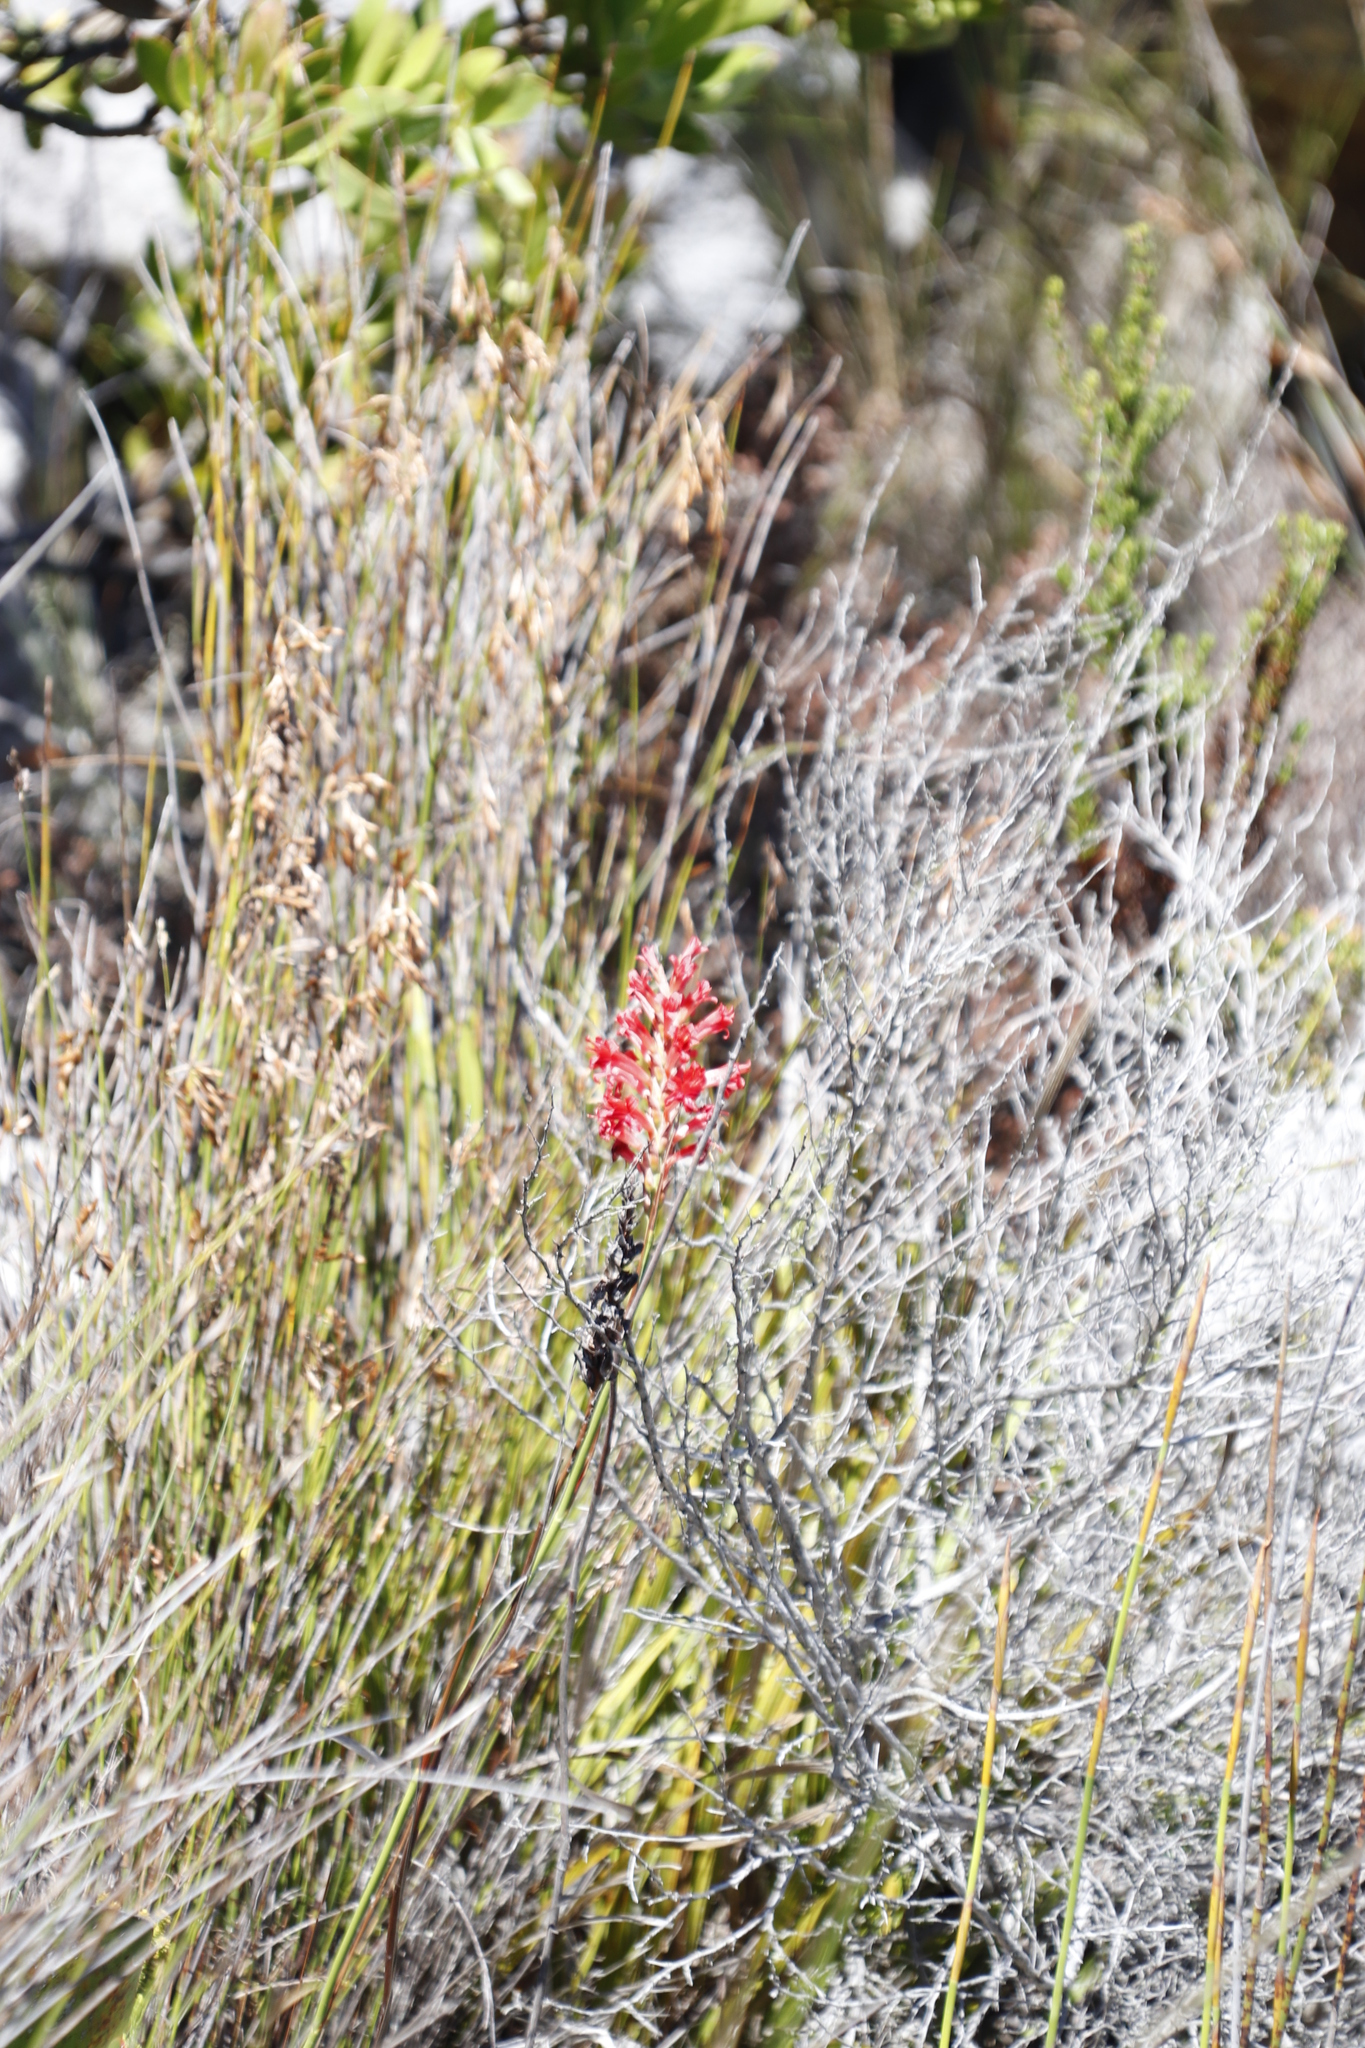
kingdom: Plantae
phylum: Tracheophyta
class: Liliopsida
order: Asparagales
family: Iridaceae
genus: Tritoniopsis
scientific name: Tritoniopsis triticea
